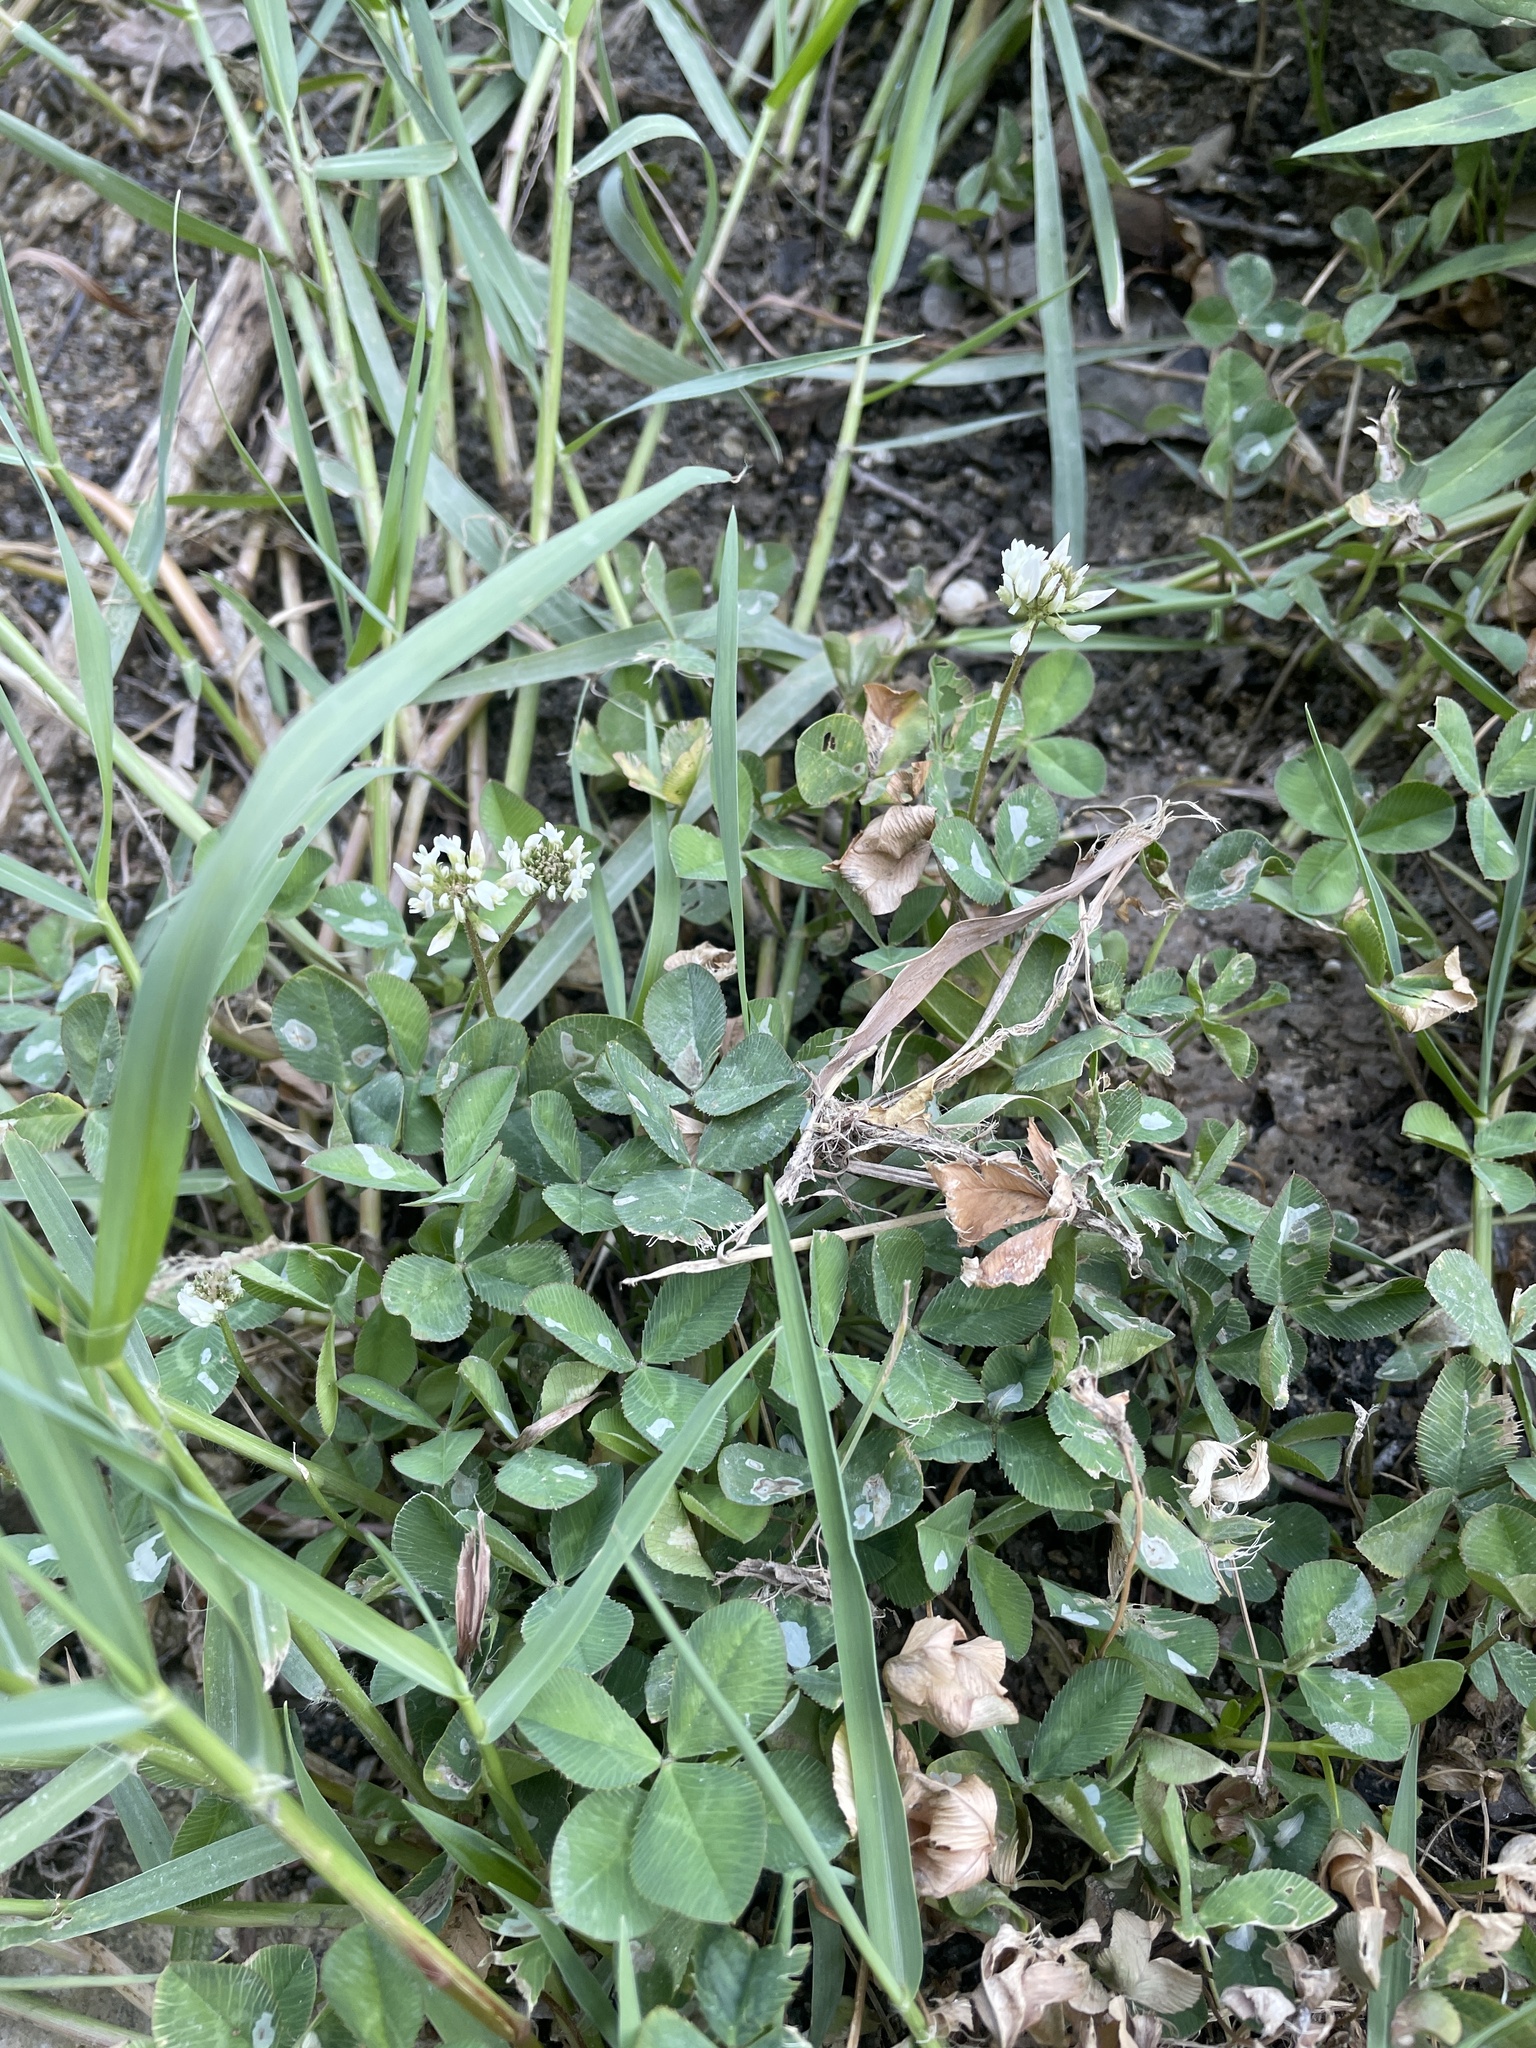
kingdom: Plantae
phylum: Tracheophyta
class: Magnoliopsida
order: Fabales
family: Fabaceae
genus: Trifolium
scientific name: Trifolium repens
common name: White clover
